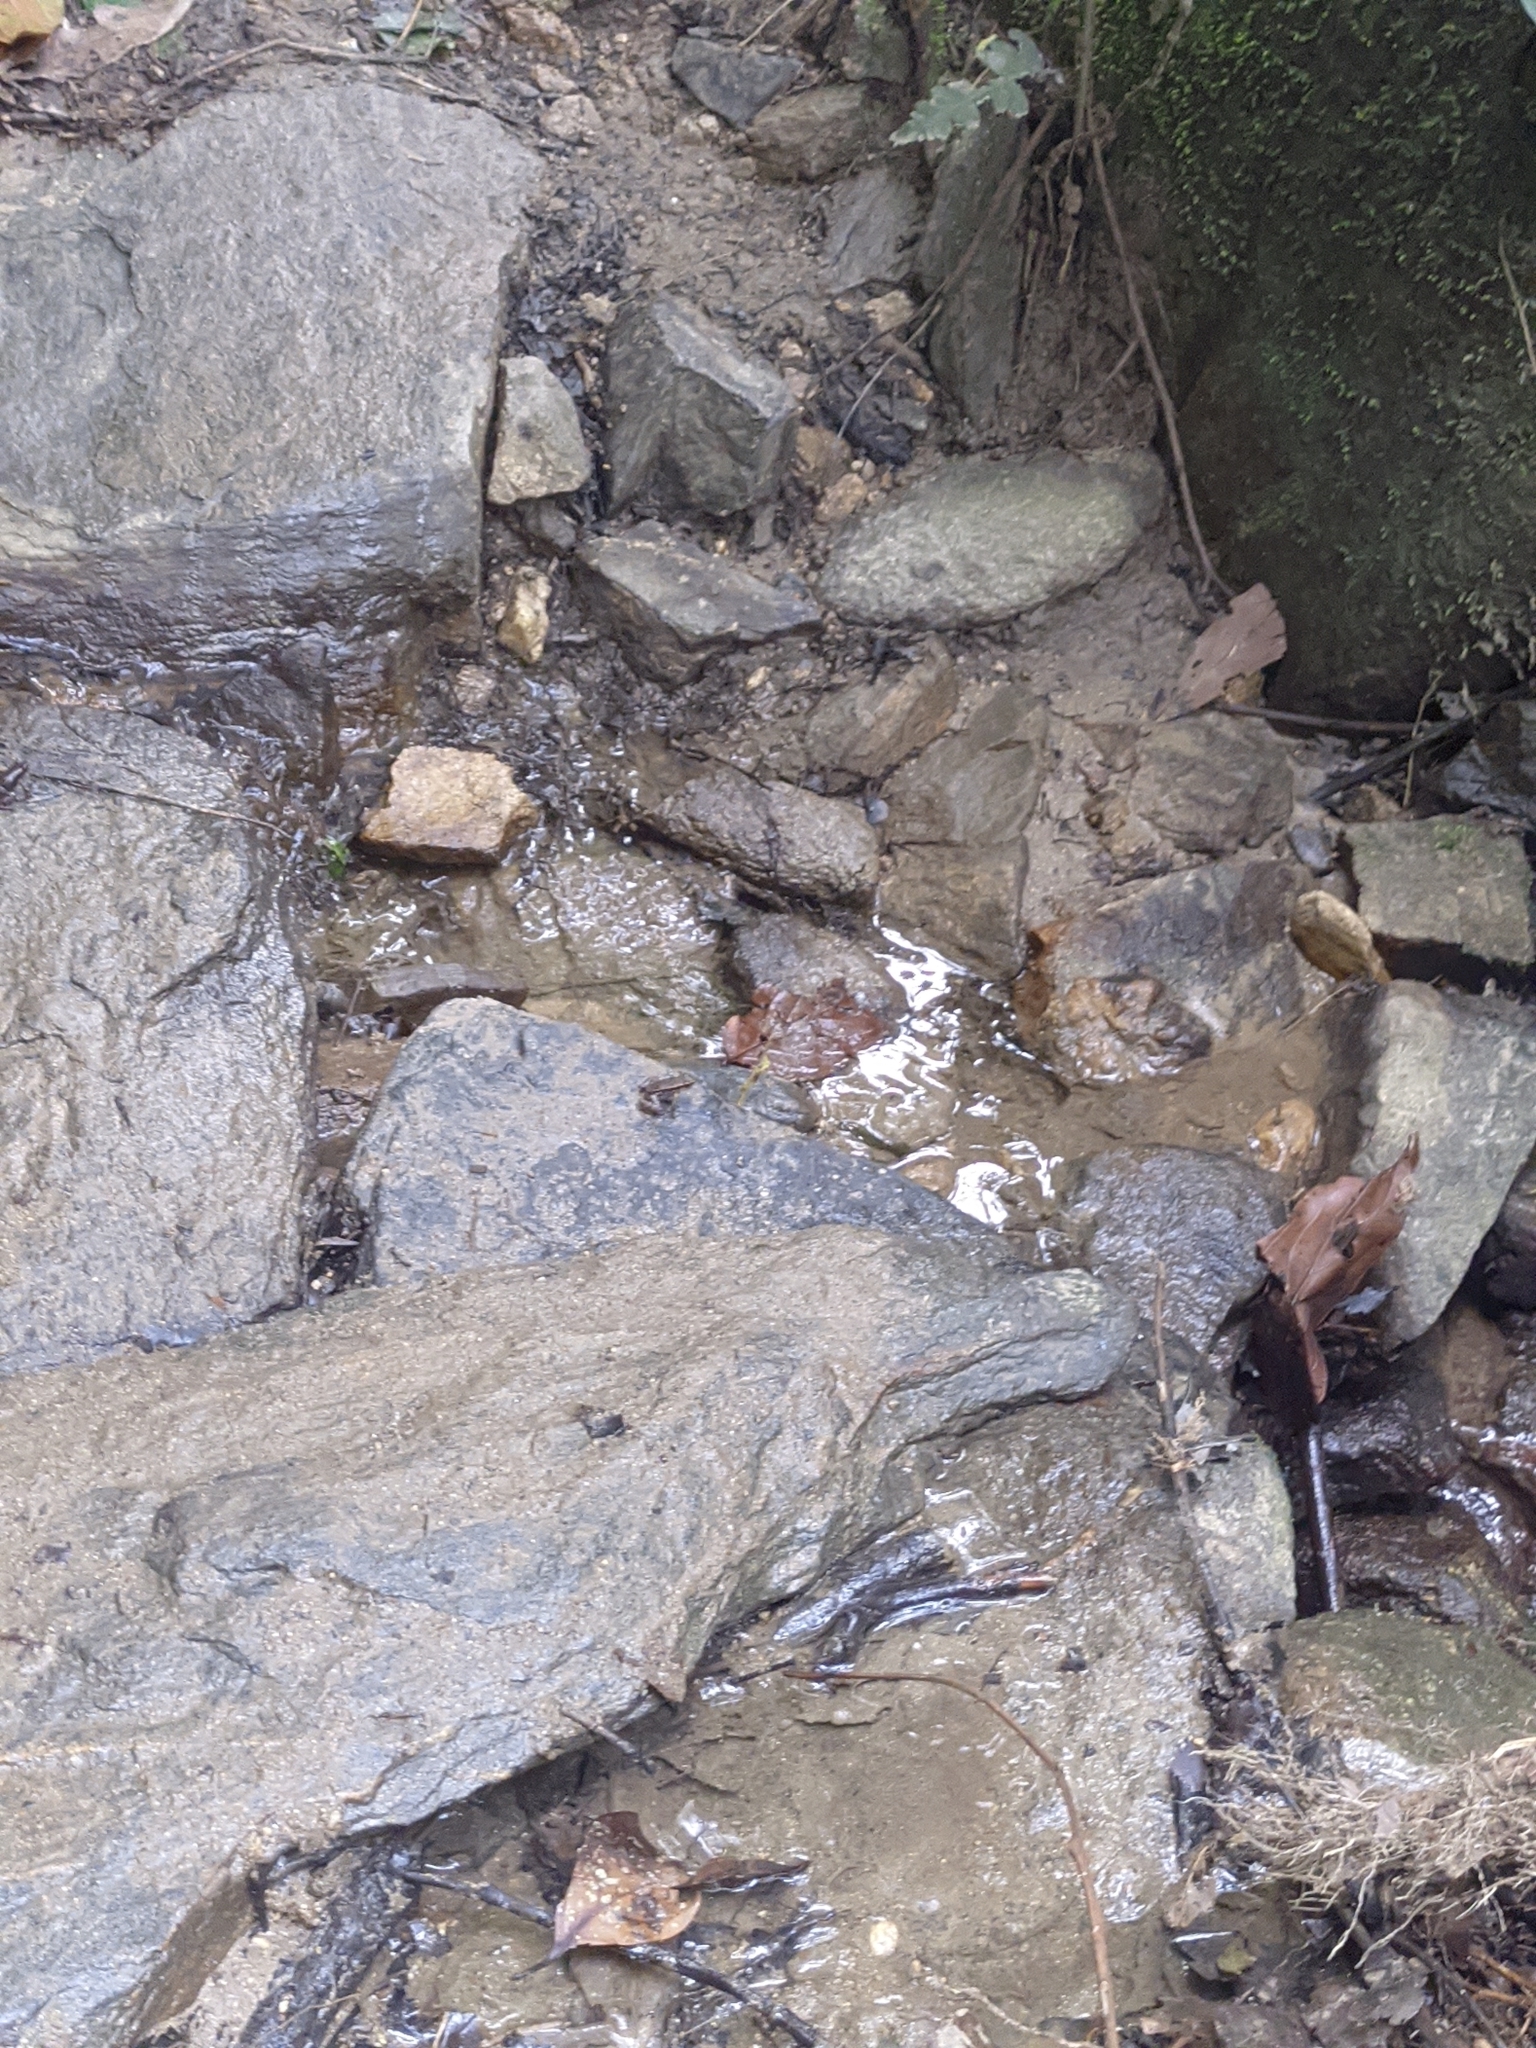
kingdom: Animalia
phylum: Chordata
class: Amphibia
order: Anura
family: Dendrobatidae
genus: Colostethus
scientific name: Colostethus ruthveni
